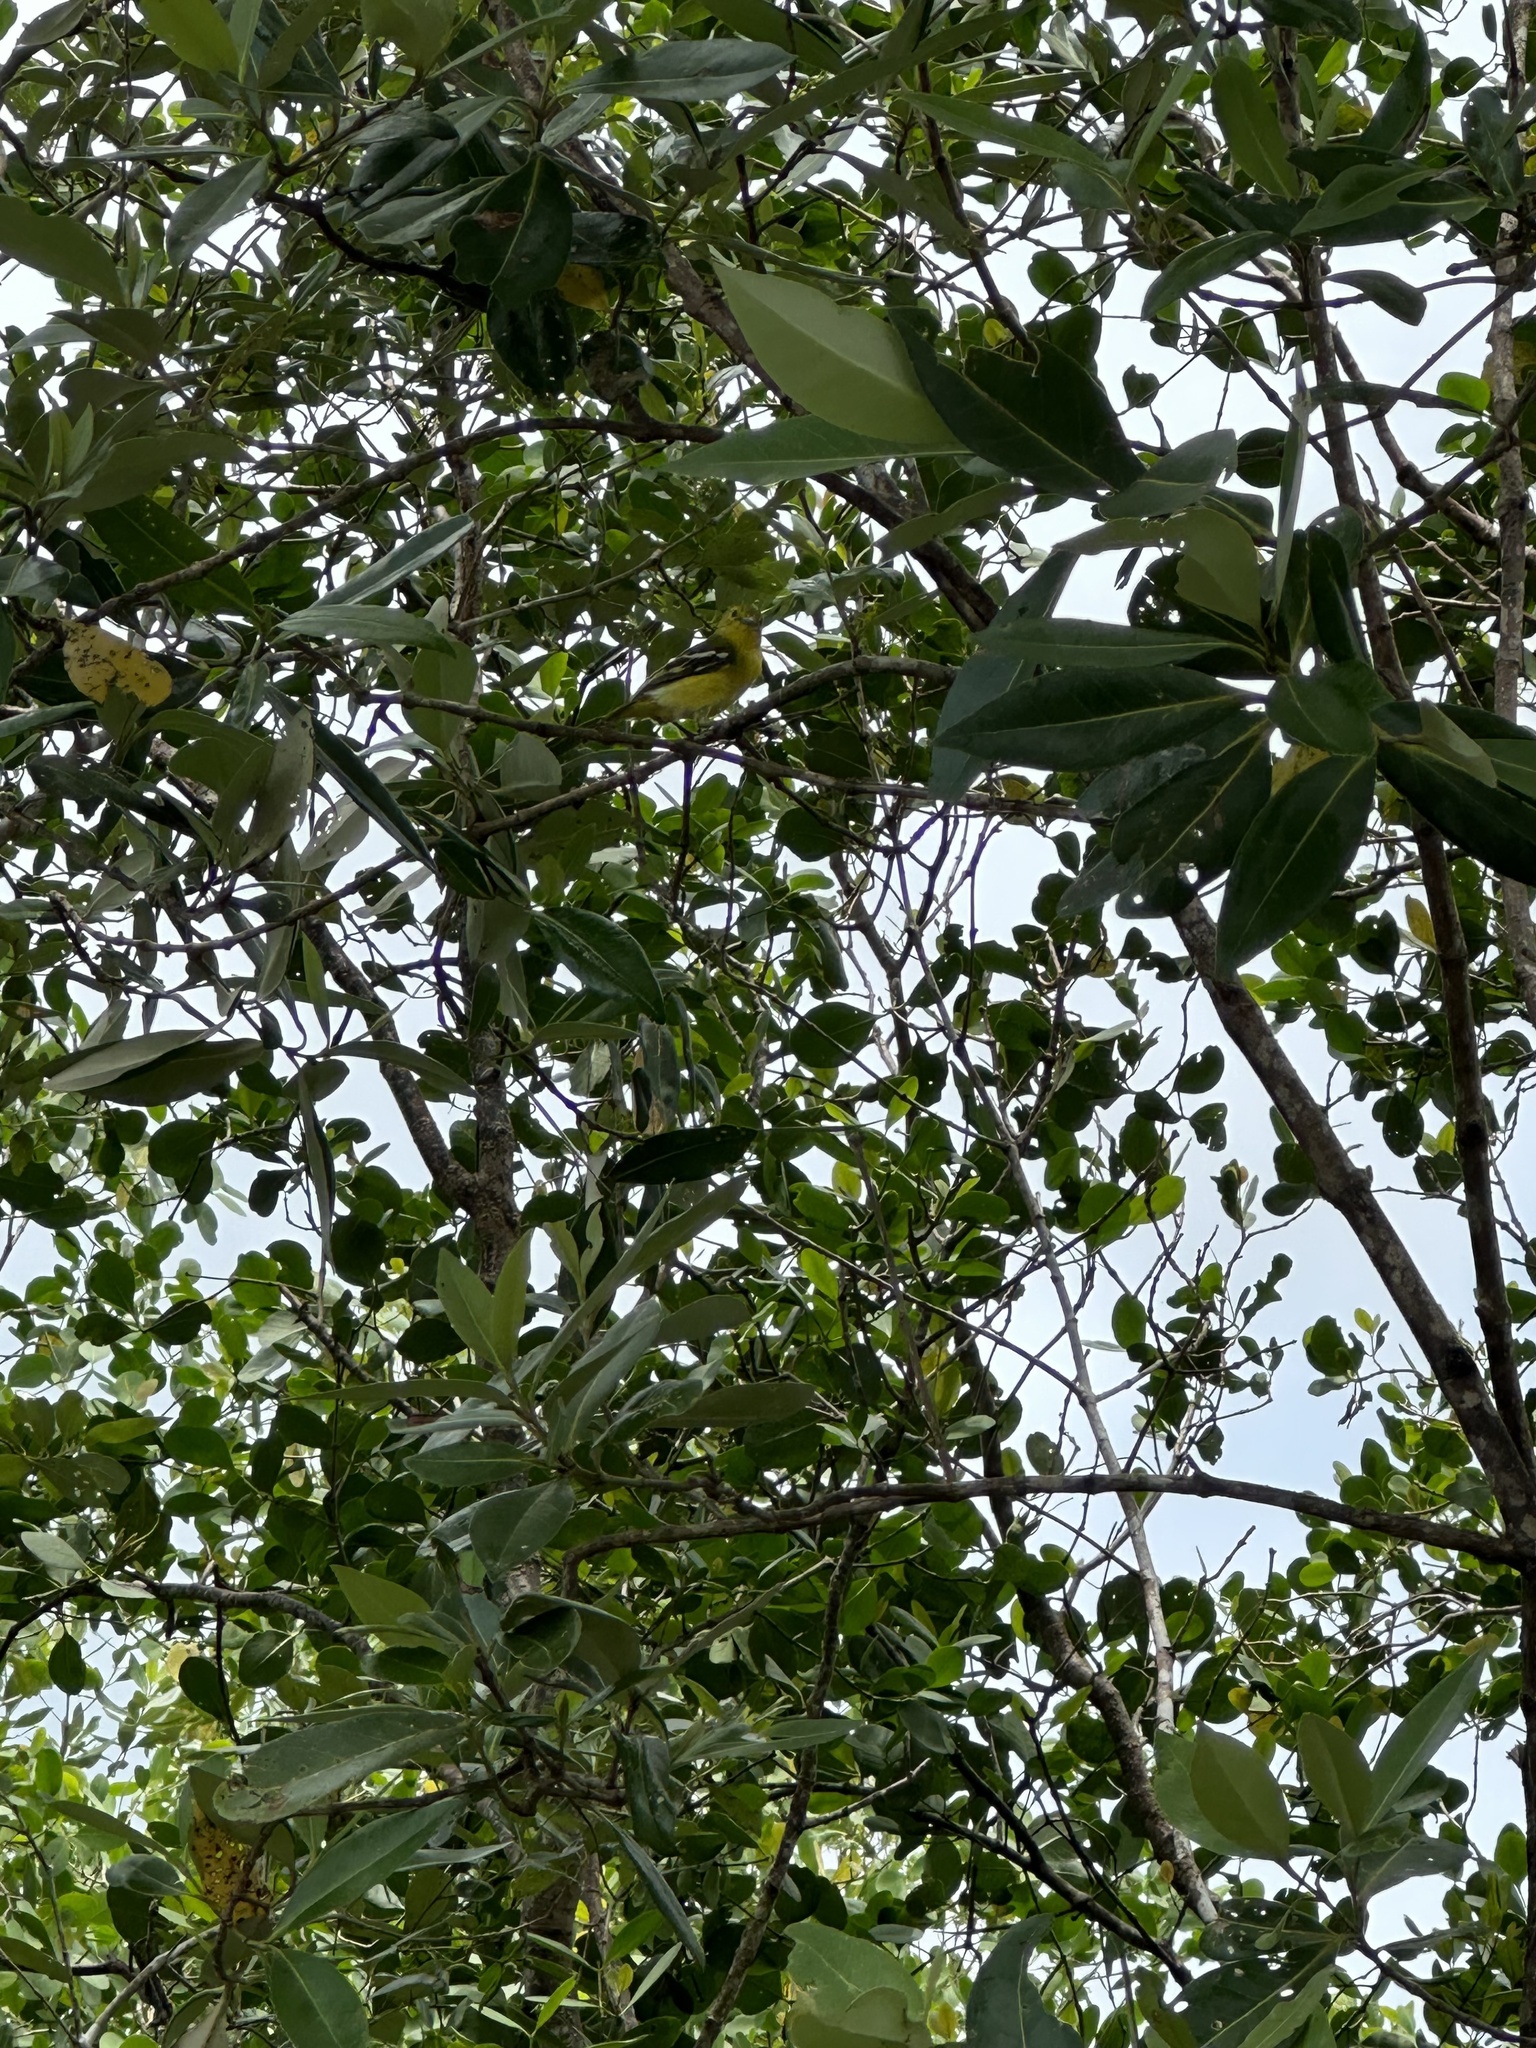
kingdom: Animalia
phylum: Chordata
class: Aves
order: Passeriformes
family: Aegithinidae
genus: Aegithina
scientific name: Aegithina tiphia
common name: Common iora
